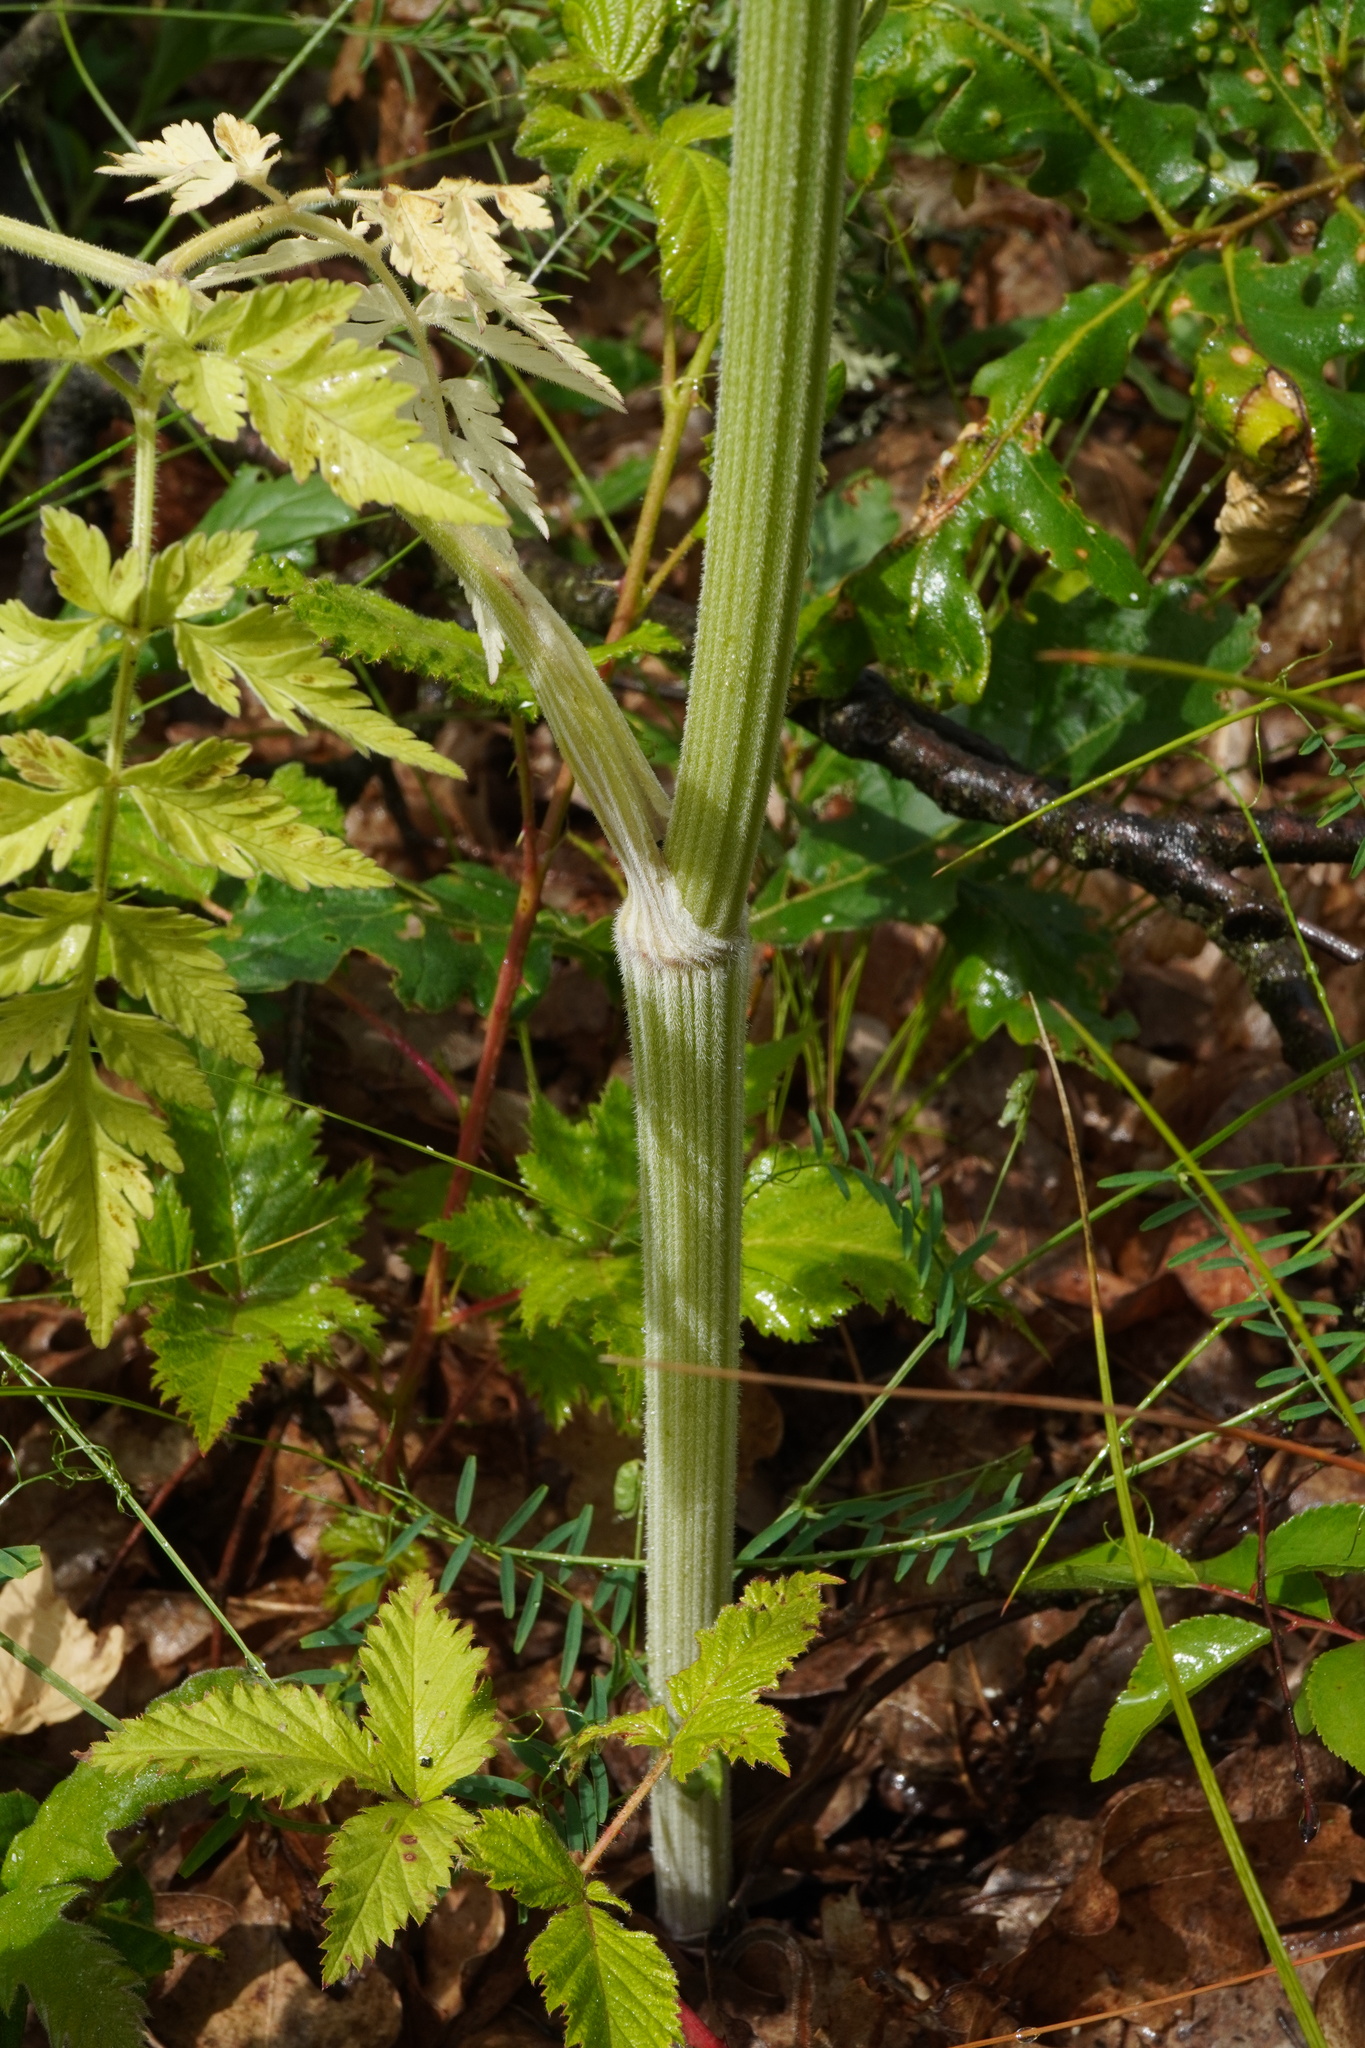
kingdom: Plantae
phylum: Tracheophyta
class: Magnoliopsida
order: Apiales
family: Apiaceae
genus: Anthriscus
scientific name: Anthriscus sylvestris
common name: Cow parsley
